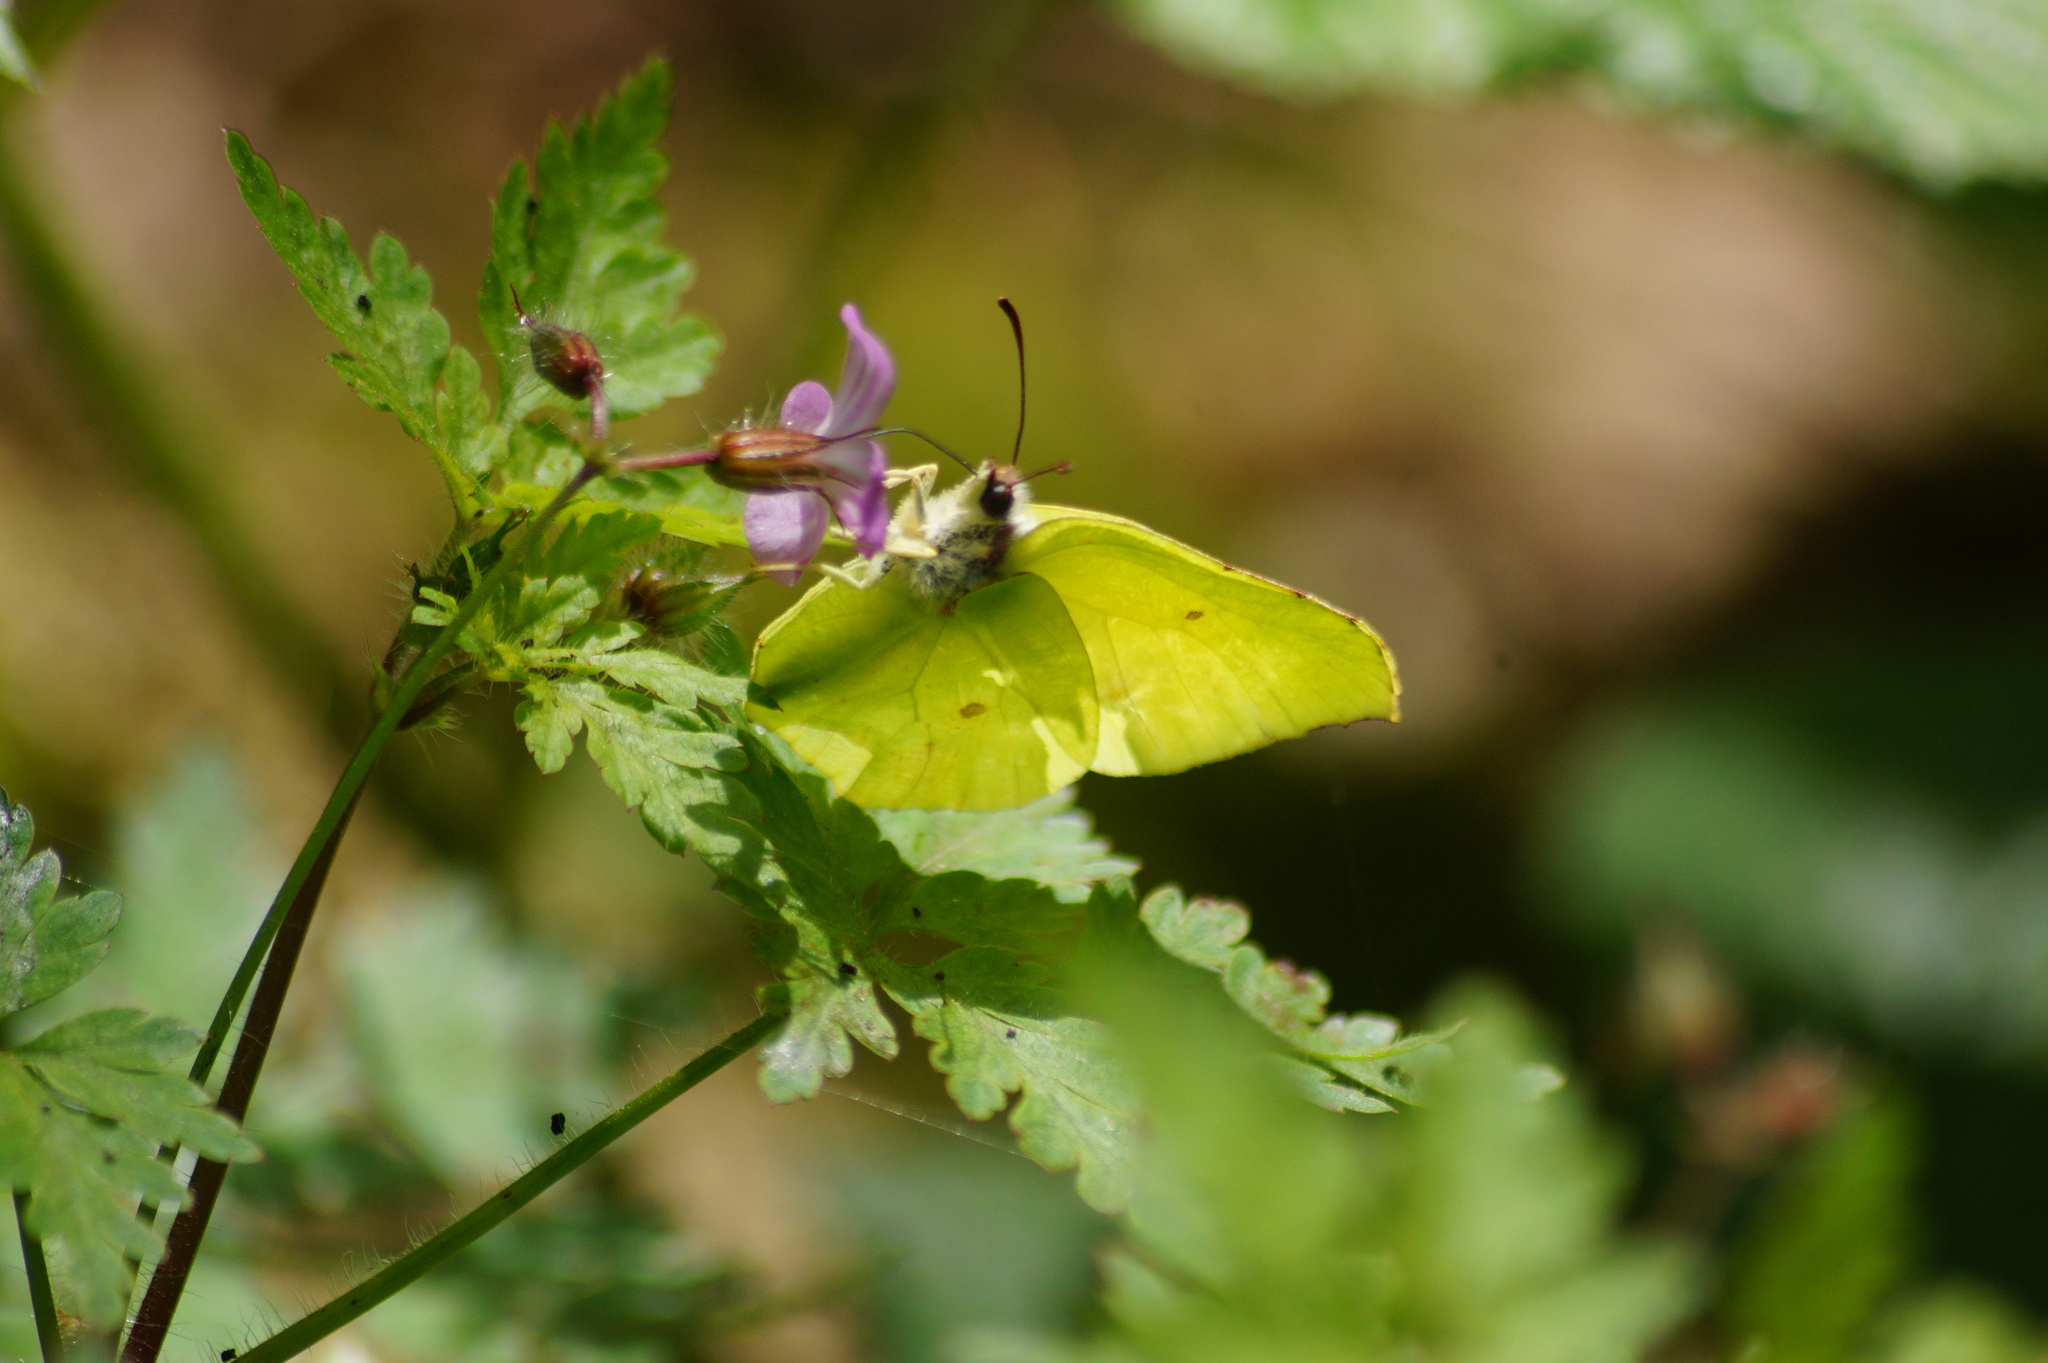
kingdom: Animalia
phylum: Arthropoda
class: Insecta
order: Lepidoptera
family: Pieridae
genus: Gonepteryx
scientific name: Gonepteryx rhamni
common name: Brimstone
